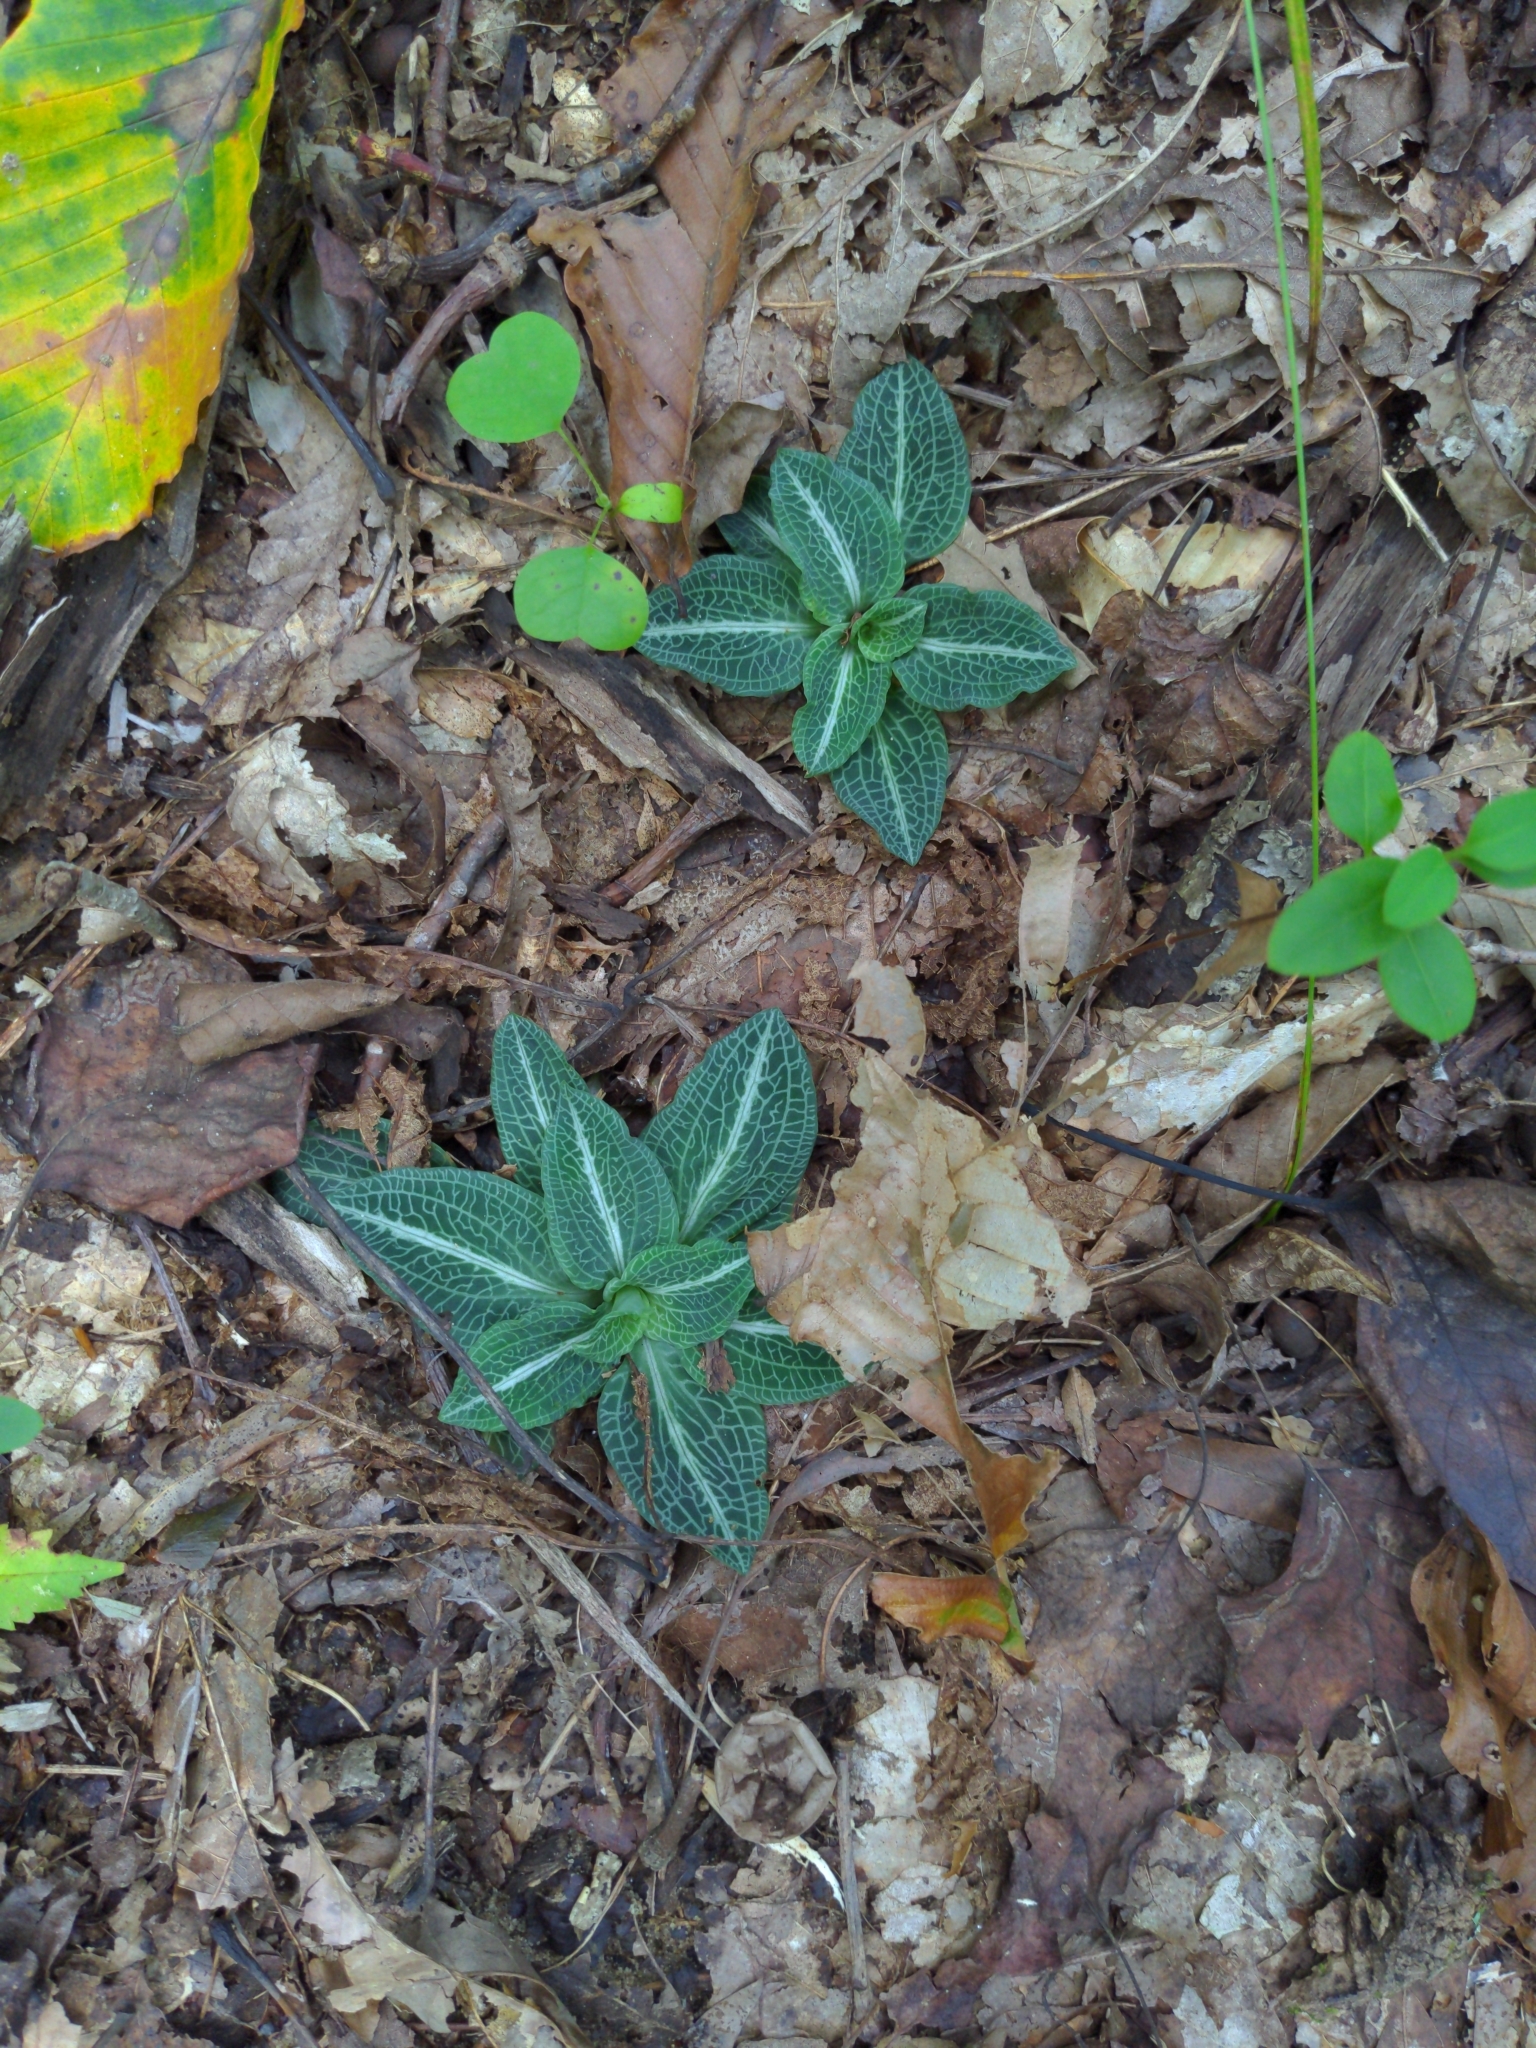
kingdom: Plantae
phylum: Tracheophyta
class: Liliopsida
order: Asparagales
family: Orchidaceae
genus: Goodyera
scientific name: Goodyera pubescens
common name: Downy rattlesnake-plantain
